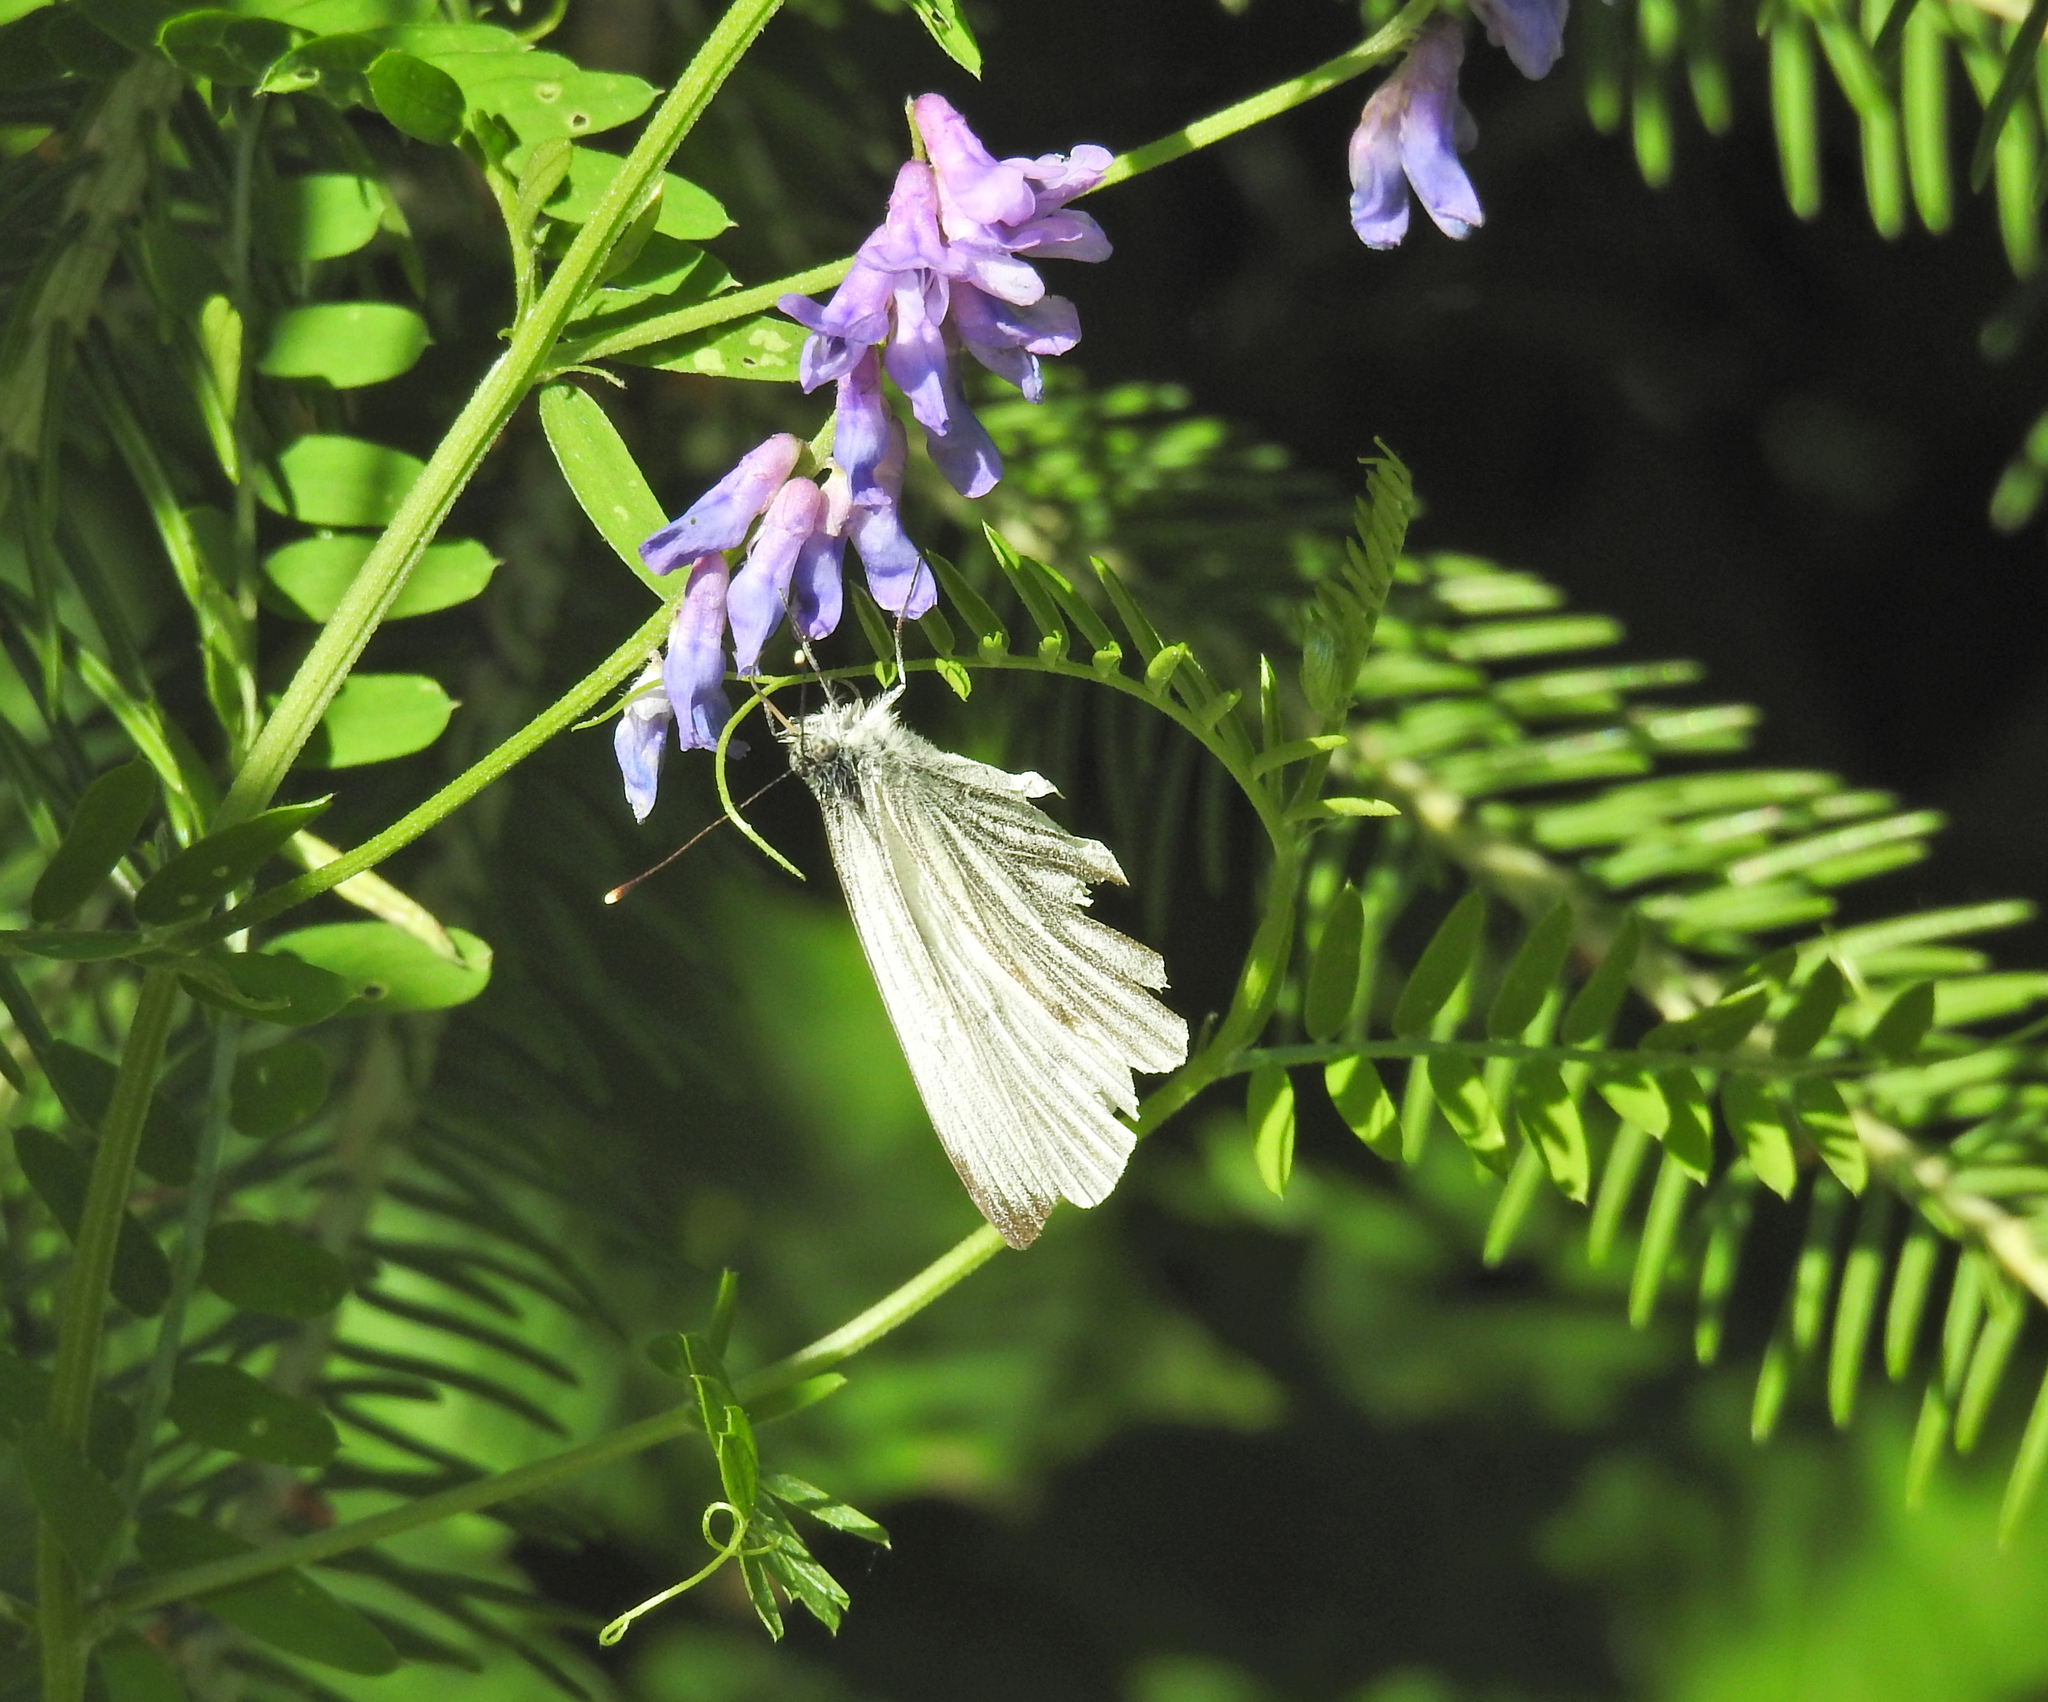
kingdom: Animalia
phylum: Arthropoda
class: Insecta
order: Lepidoptera
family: Pieridae
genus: Pieris
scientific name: Pieris napi
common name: Green-veined white
